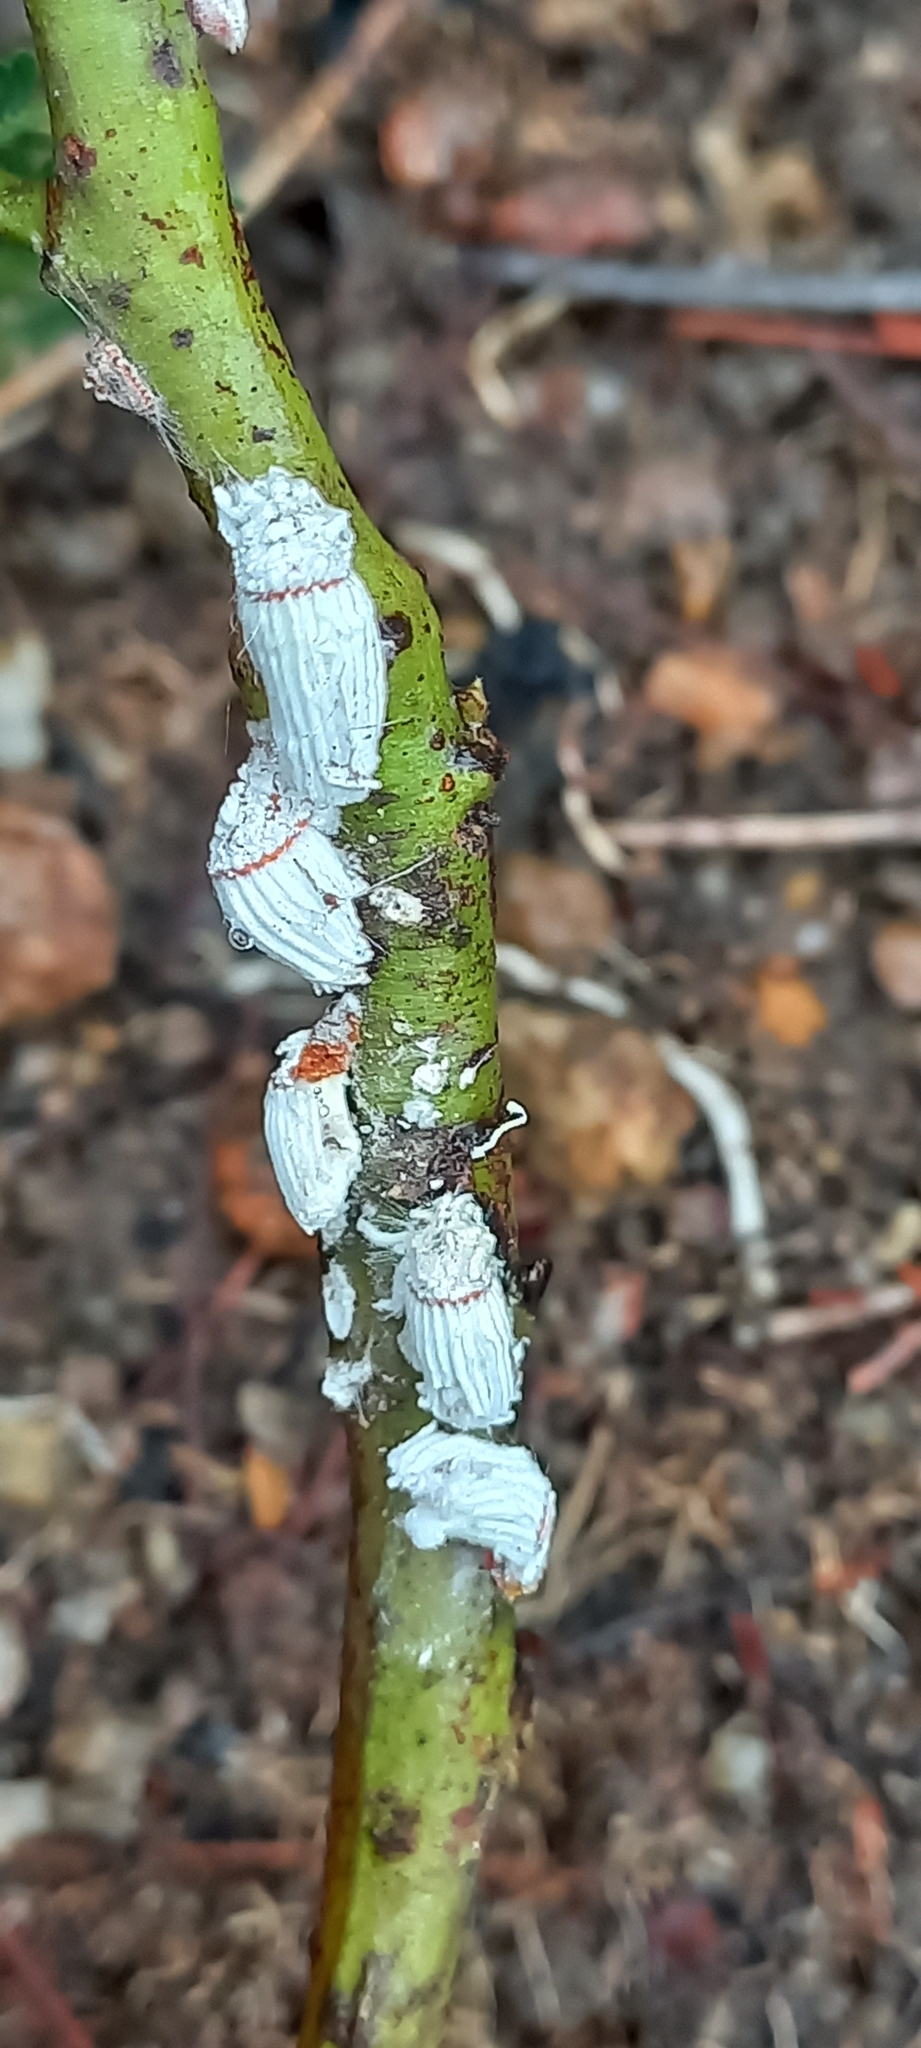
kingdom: Animalia
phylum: Arthropoda
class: Insecta
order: Hemiptera
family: Margarodidae
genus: Icerya
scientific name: Icerya purchasi
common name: Cottony cushion scale
